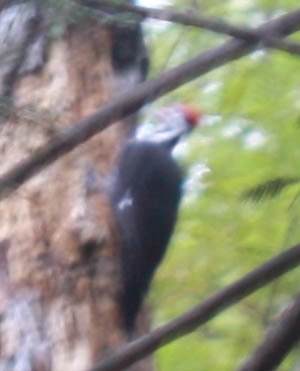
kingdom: Animalia
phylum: Chordata
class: Aves
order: Piciformes
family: Picidae
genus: Dryocopus
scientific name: Dryocopus pileatus
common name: Pileated woodpecker
